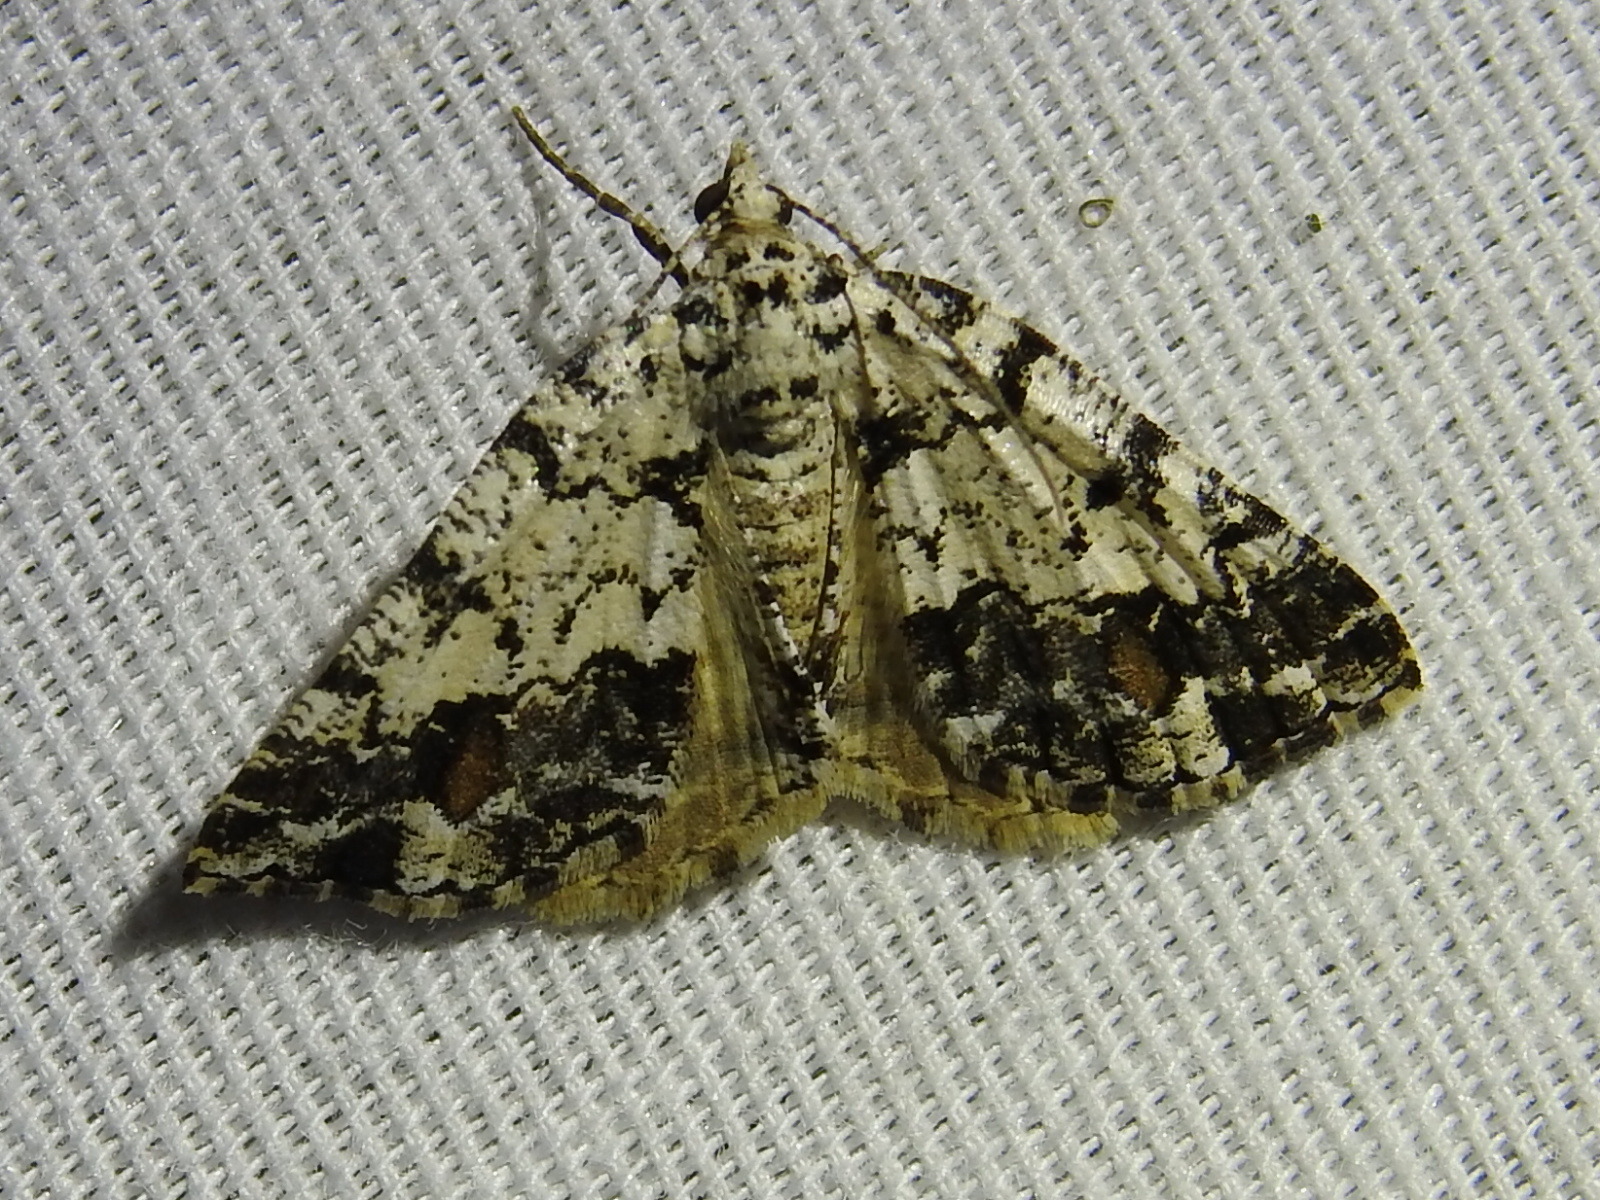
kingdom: Animalia
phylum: Arthropoda
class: Insecta
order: Lepidoptera
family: Geometridae
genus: Macaria
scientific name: Macaria graphidaria
